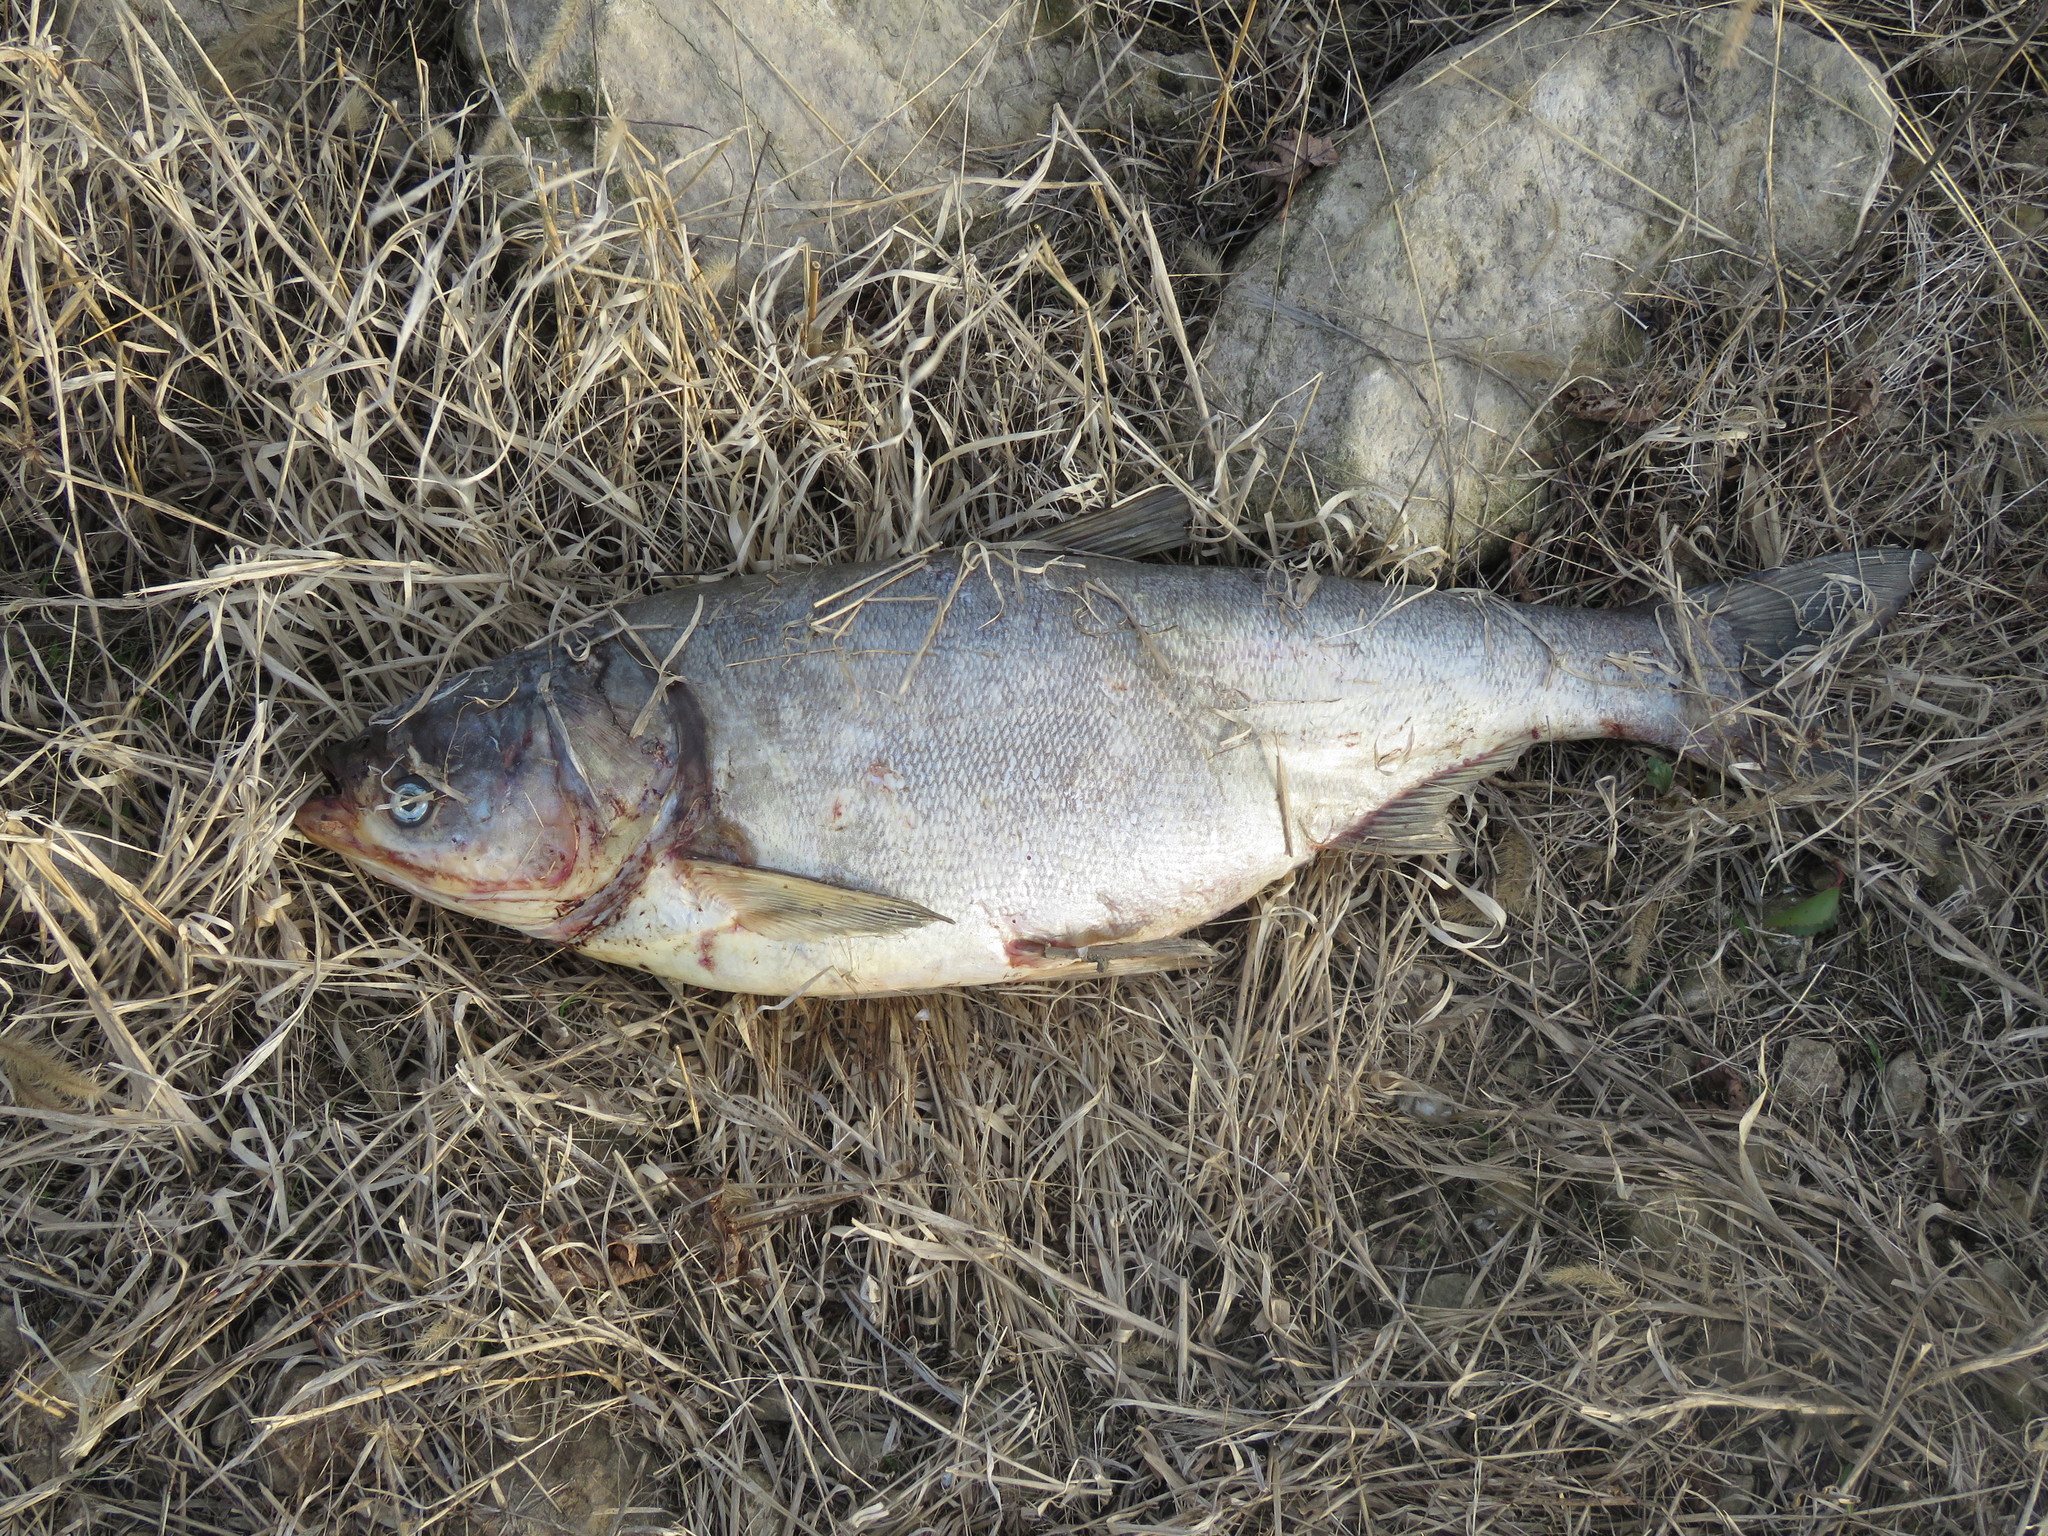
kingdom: Animalia
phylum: Chordata
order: Cypriniformes
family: Cyprinidae
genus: Hypophthalmichthys
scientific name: Hypophthalmichthys molitrix
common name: Silver carp
